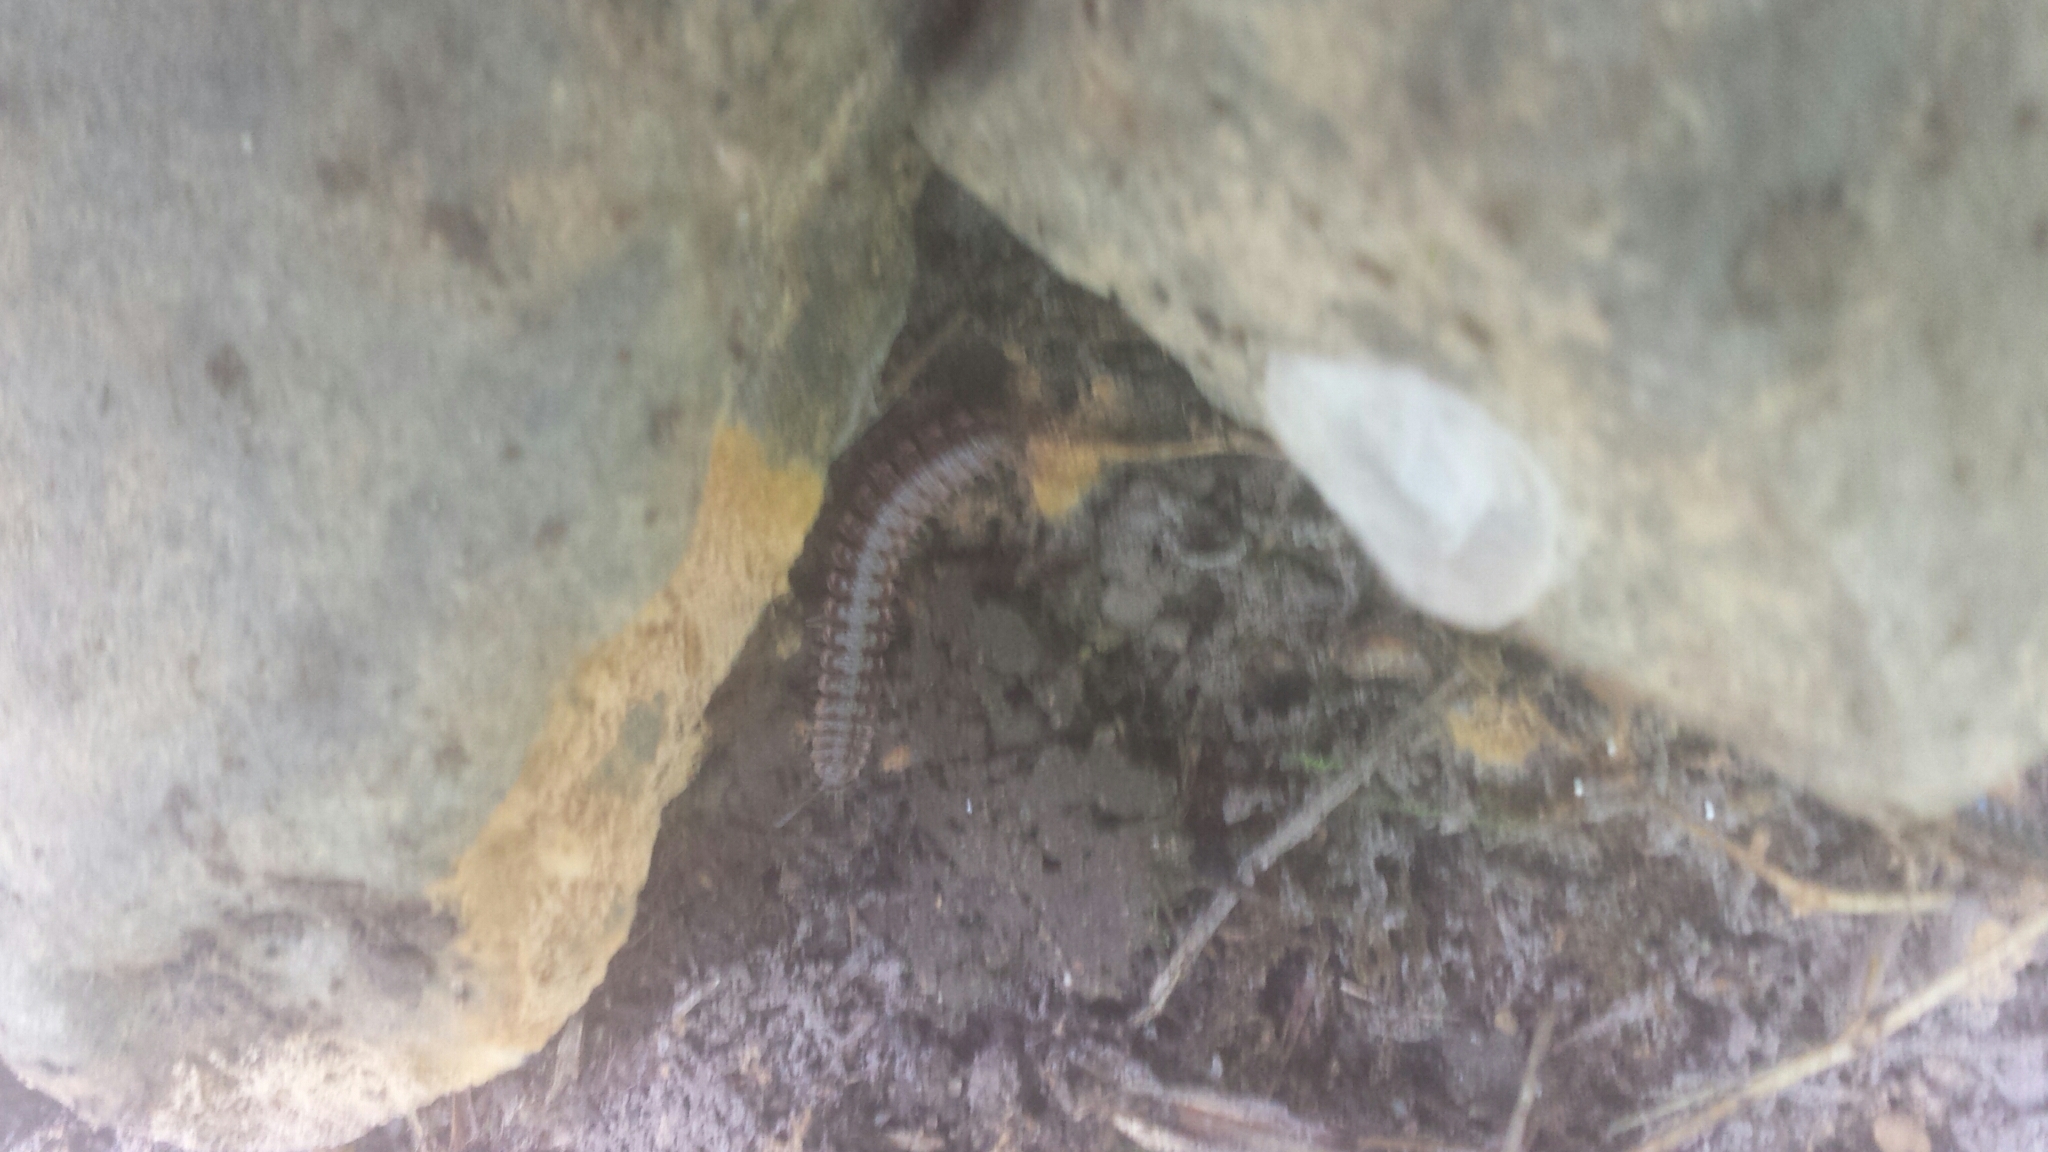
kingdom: Animalia
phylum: Arthropoda
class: Diplopoda
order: Polydesmida
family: Polydesmidae
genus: Pseudopolydesmus
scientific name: Pseudopolydesmus serratus
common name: Common pink flat-back millipede
